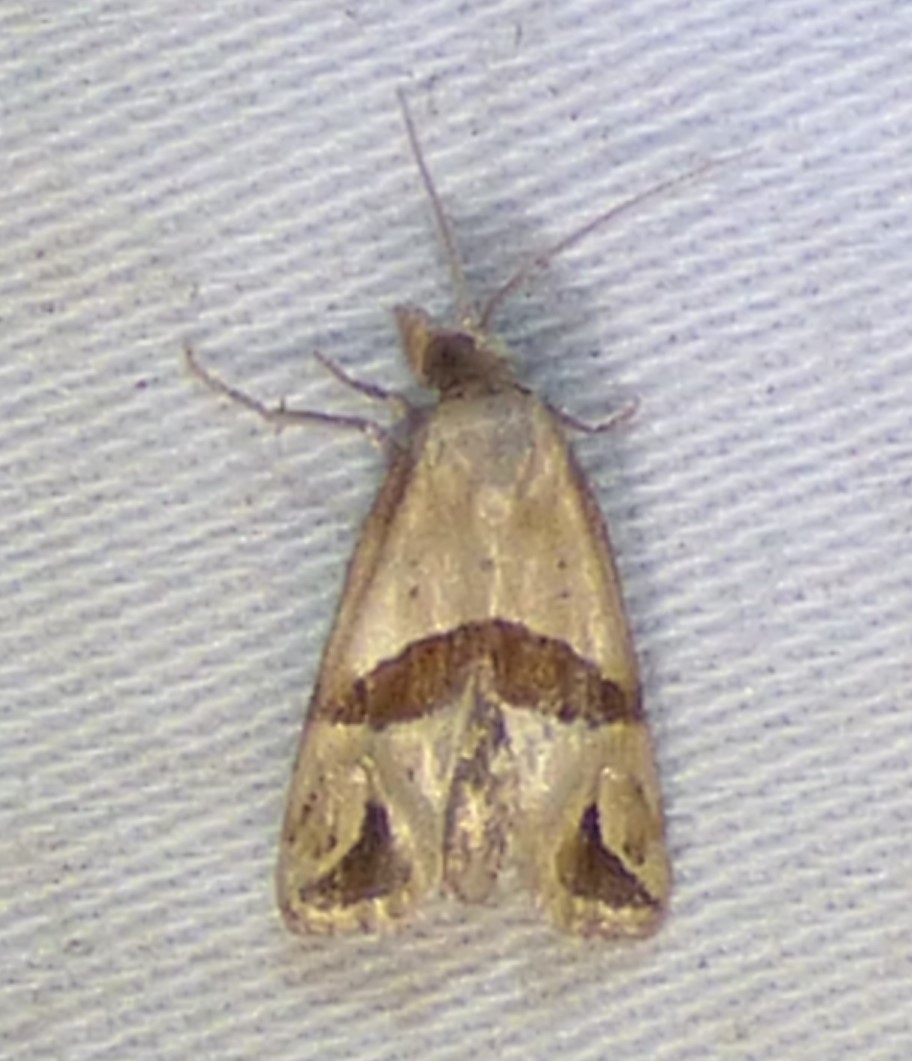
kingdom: Animalia
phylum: Arthropoda
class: Insecta
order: Lepidoptera
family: Tortricidae
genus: Eugnosta
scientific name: Eugnosta sartana
